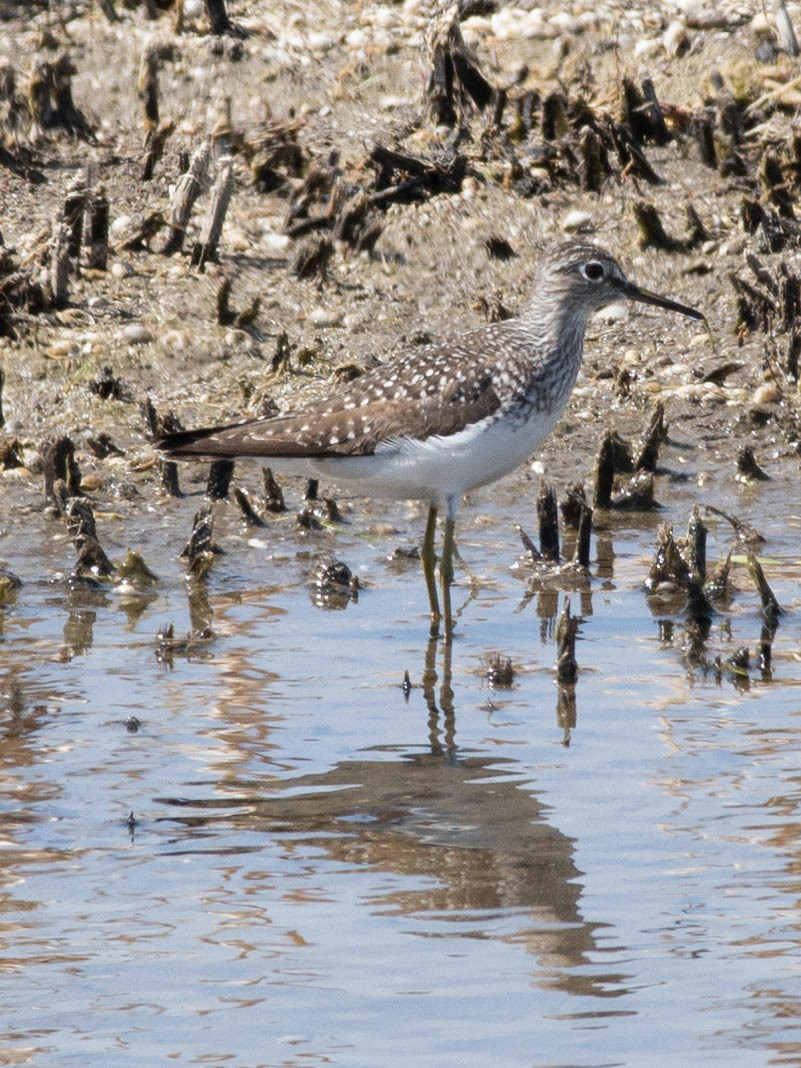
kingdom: Animalia
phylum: Chordata
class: Aves
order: Charadriiformes
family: Scolopacidae
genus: Tringa
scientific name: Tringa solitaria
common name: Solitary sandpiper
